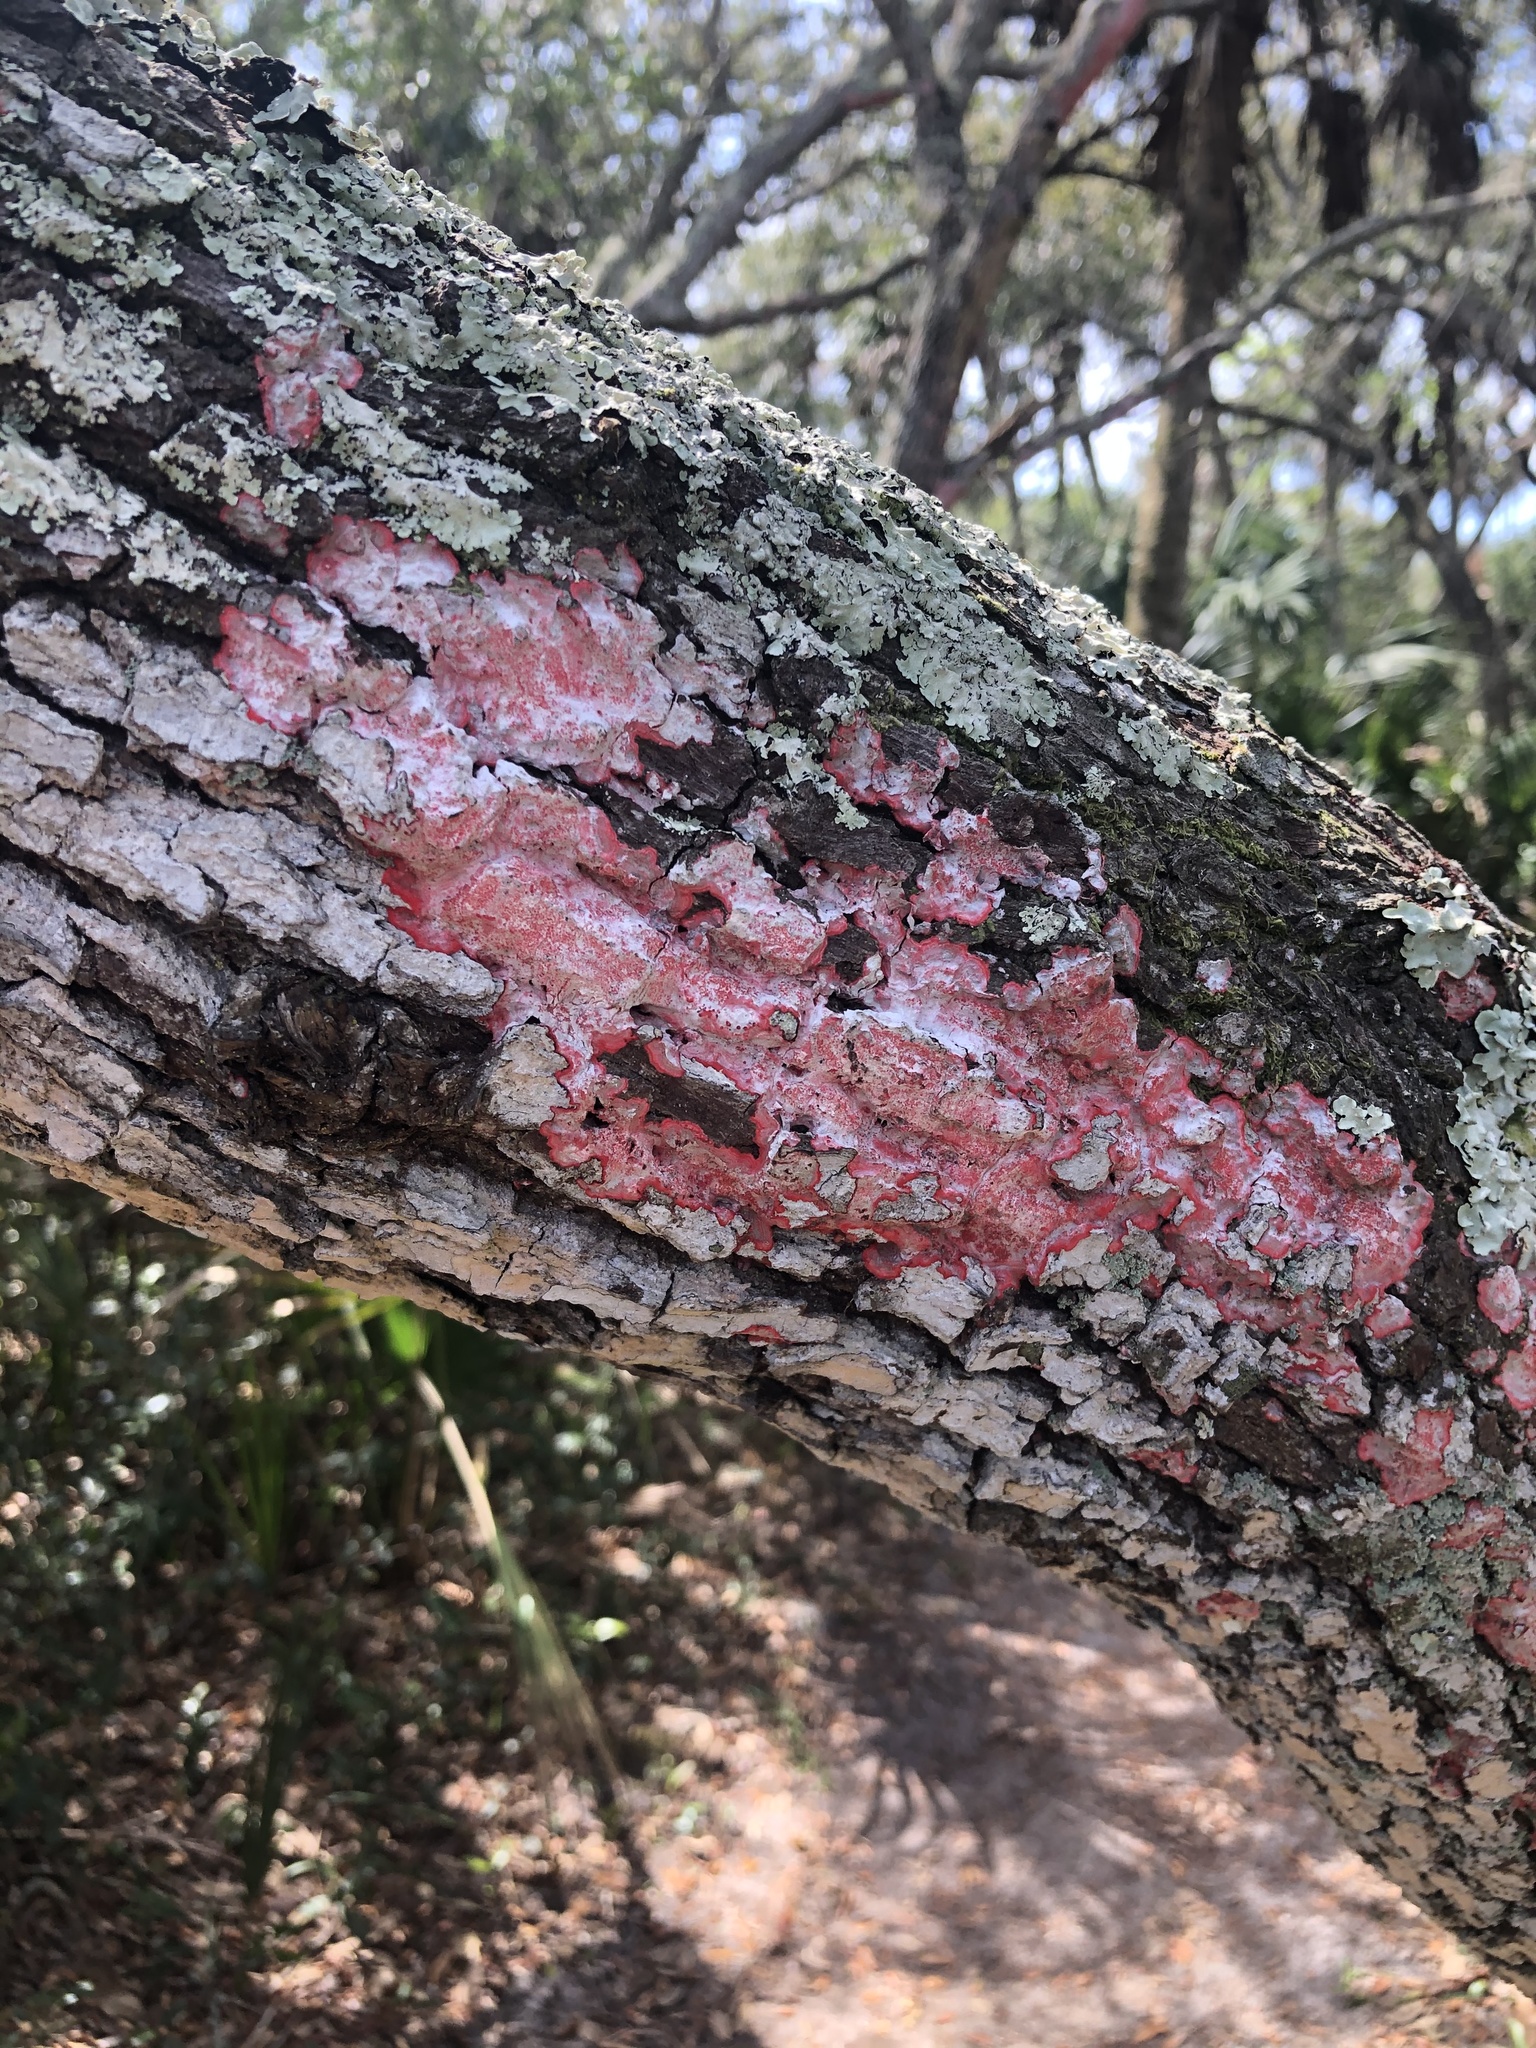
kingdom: Fungi
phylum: Ascomycota
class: Arthoniomycetes
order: Arthoniales
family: Arthoniaceae
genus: Herpothallon
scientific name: Herpothallon rubrocinctum
